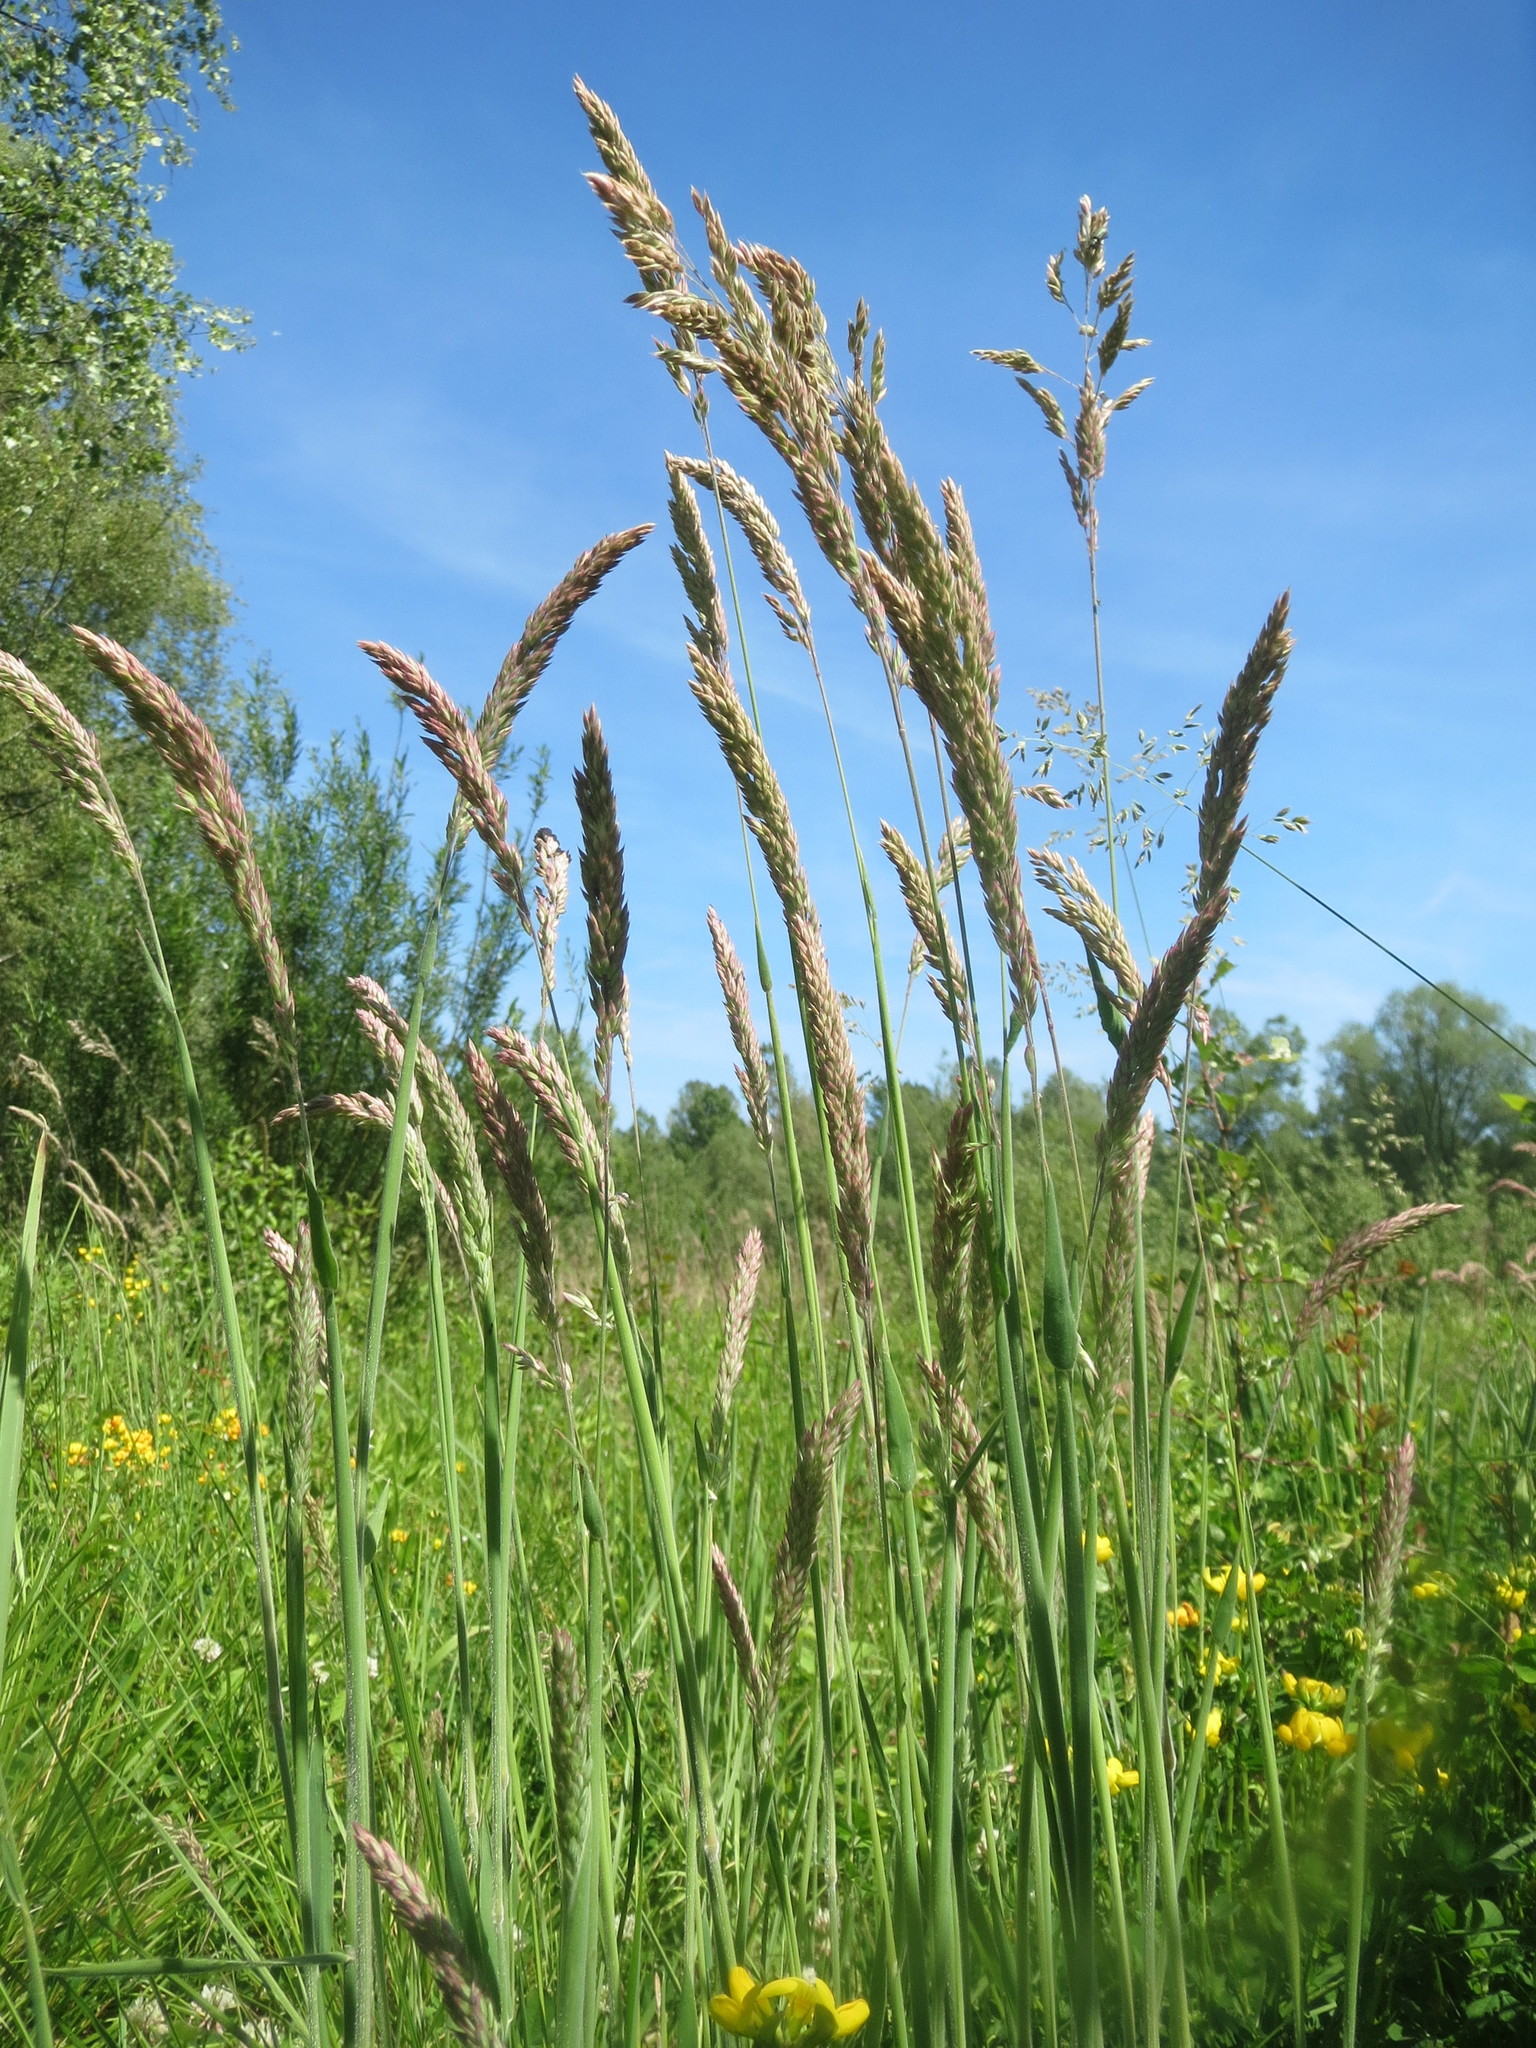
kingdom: Plantae
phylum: Tracheophyta
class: Liliopsida
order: Poales
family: Poaceae
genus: Holcus
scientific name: Holcus lanatus
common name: Yorkshire-fog
